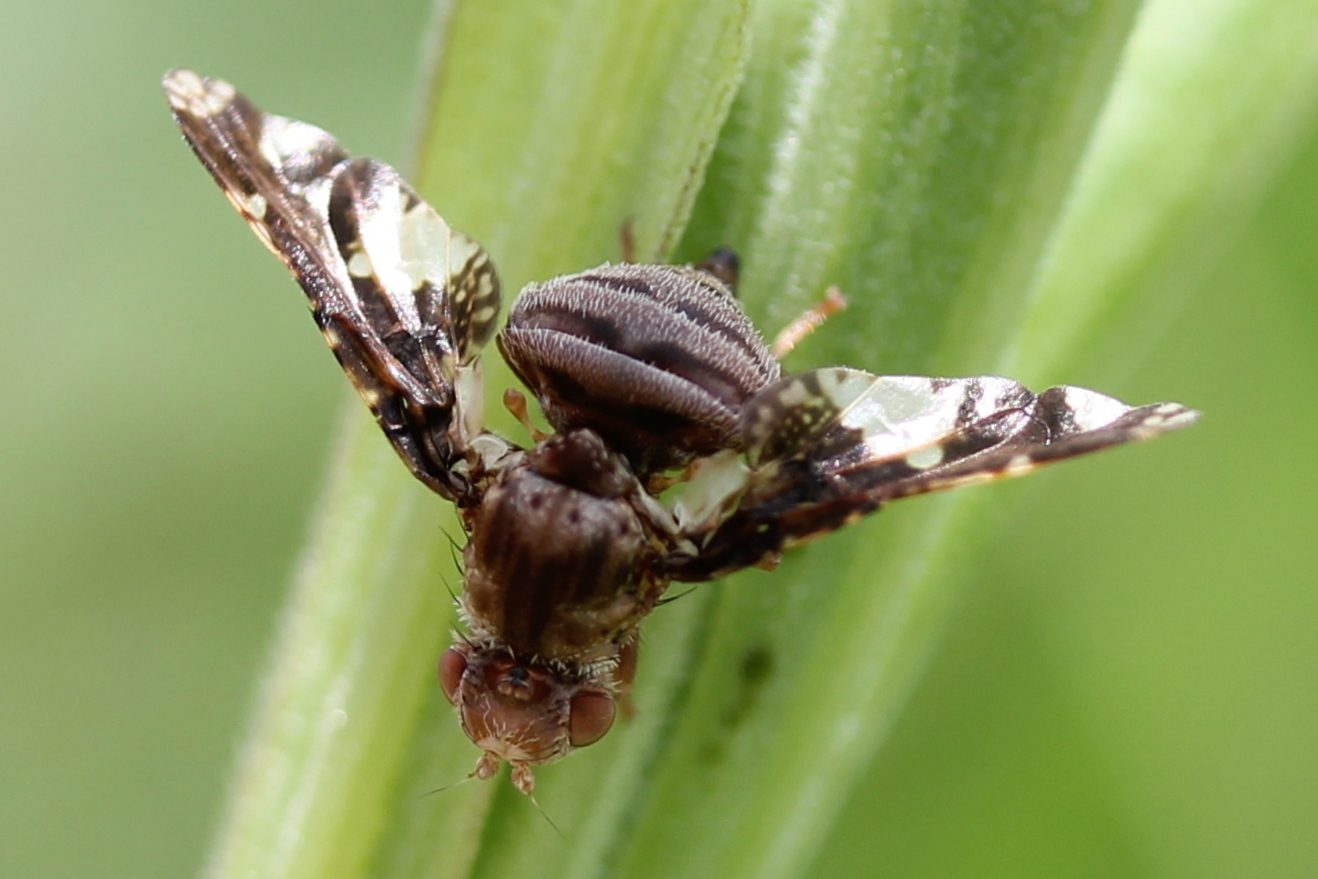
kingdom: Animalia
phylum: Arthropoda
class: Insecta
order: Diptera
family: Tephritidae
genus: Eurosta
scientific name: Eurosta solidaginis
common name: Goldenrod gall fly
